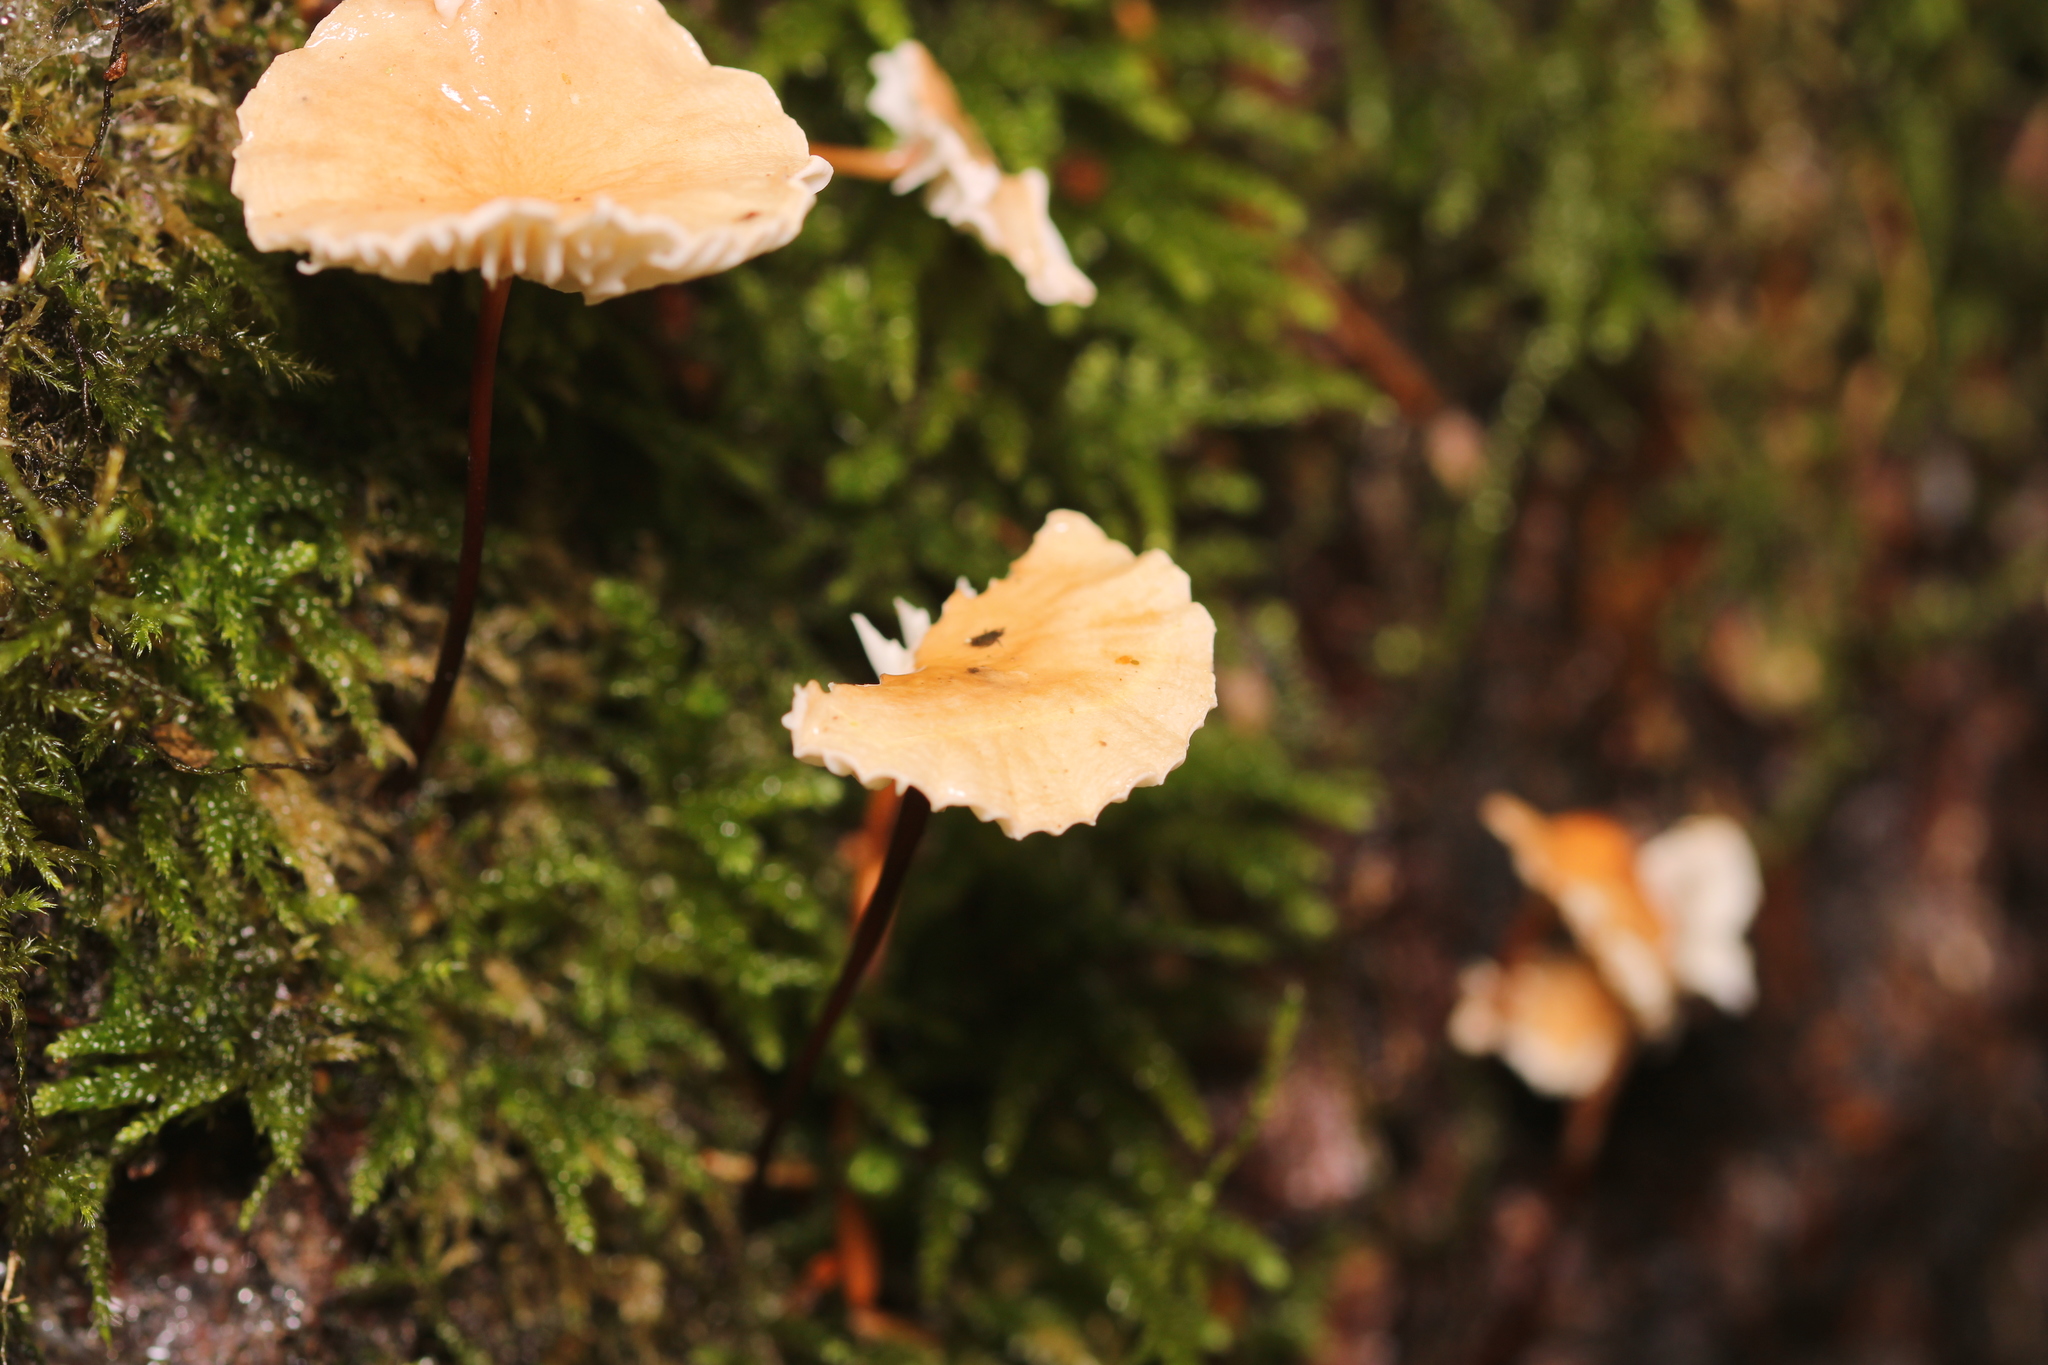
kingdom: Fungi
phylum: Basidiomycota
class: Agaricomycetes
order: Agaricales
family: Omphalotaceae
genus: Mycetinis
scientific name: Mycetinis scorodonius
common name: Vampires bane
